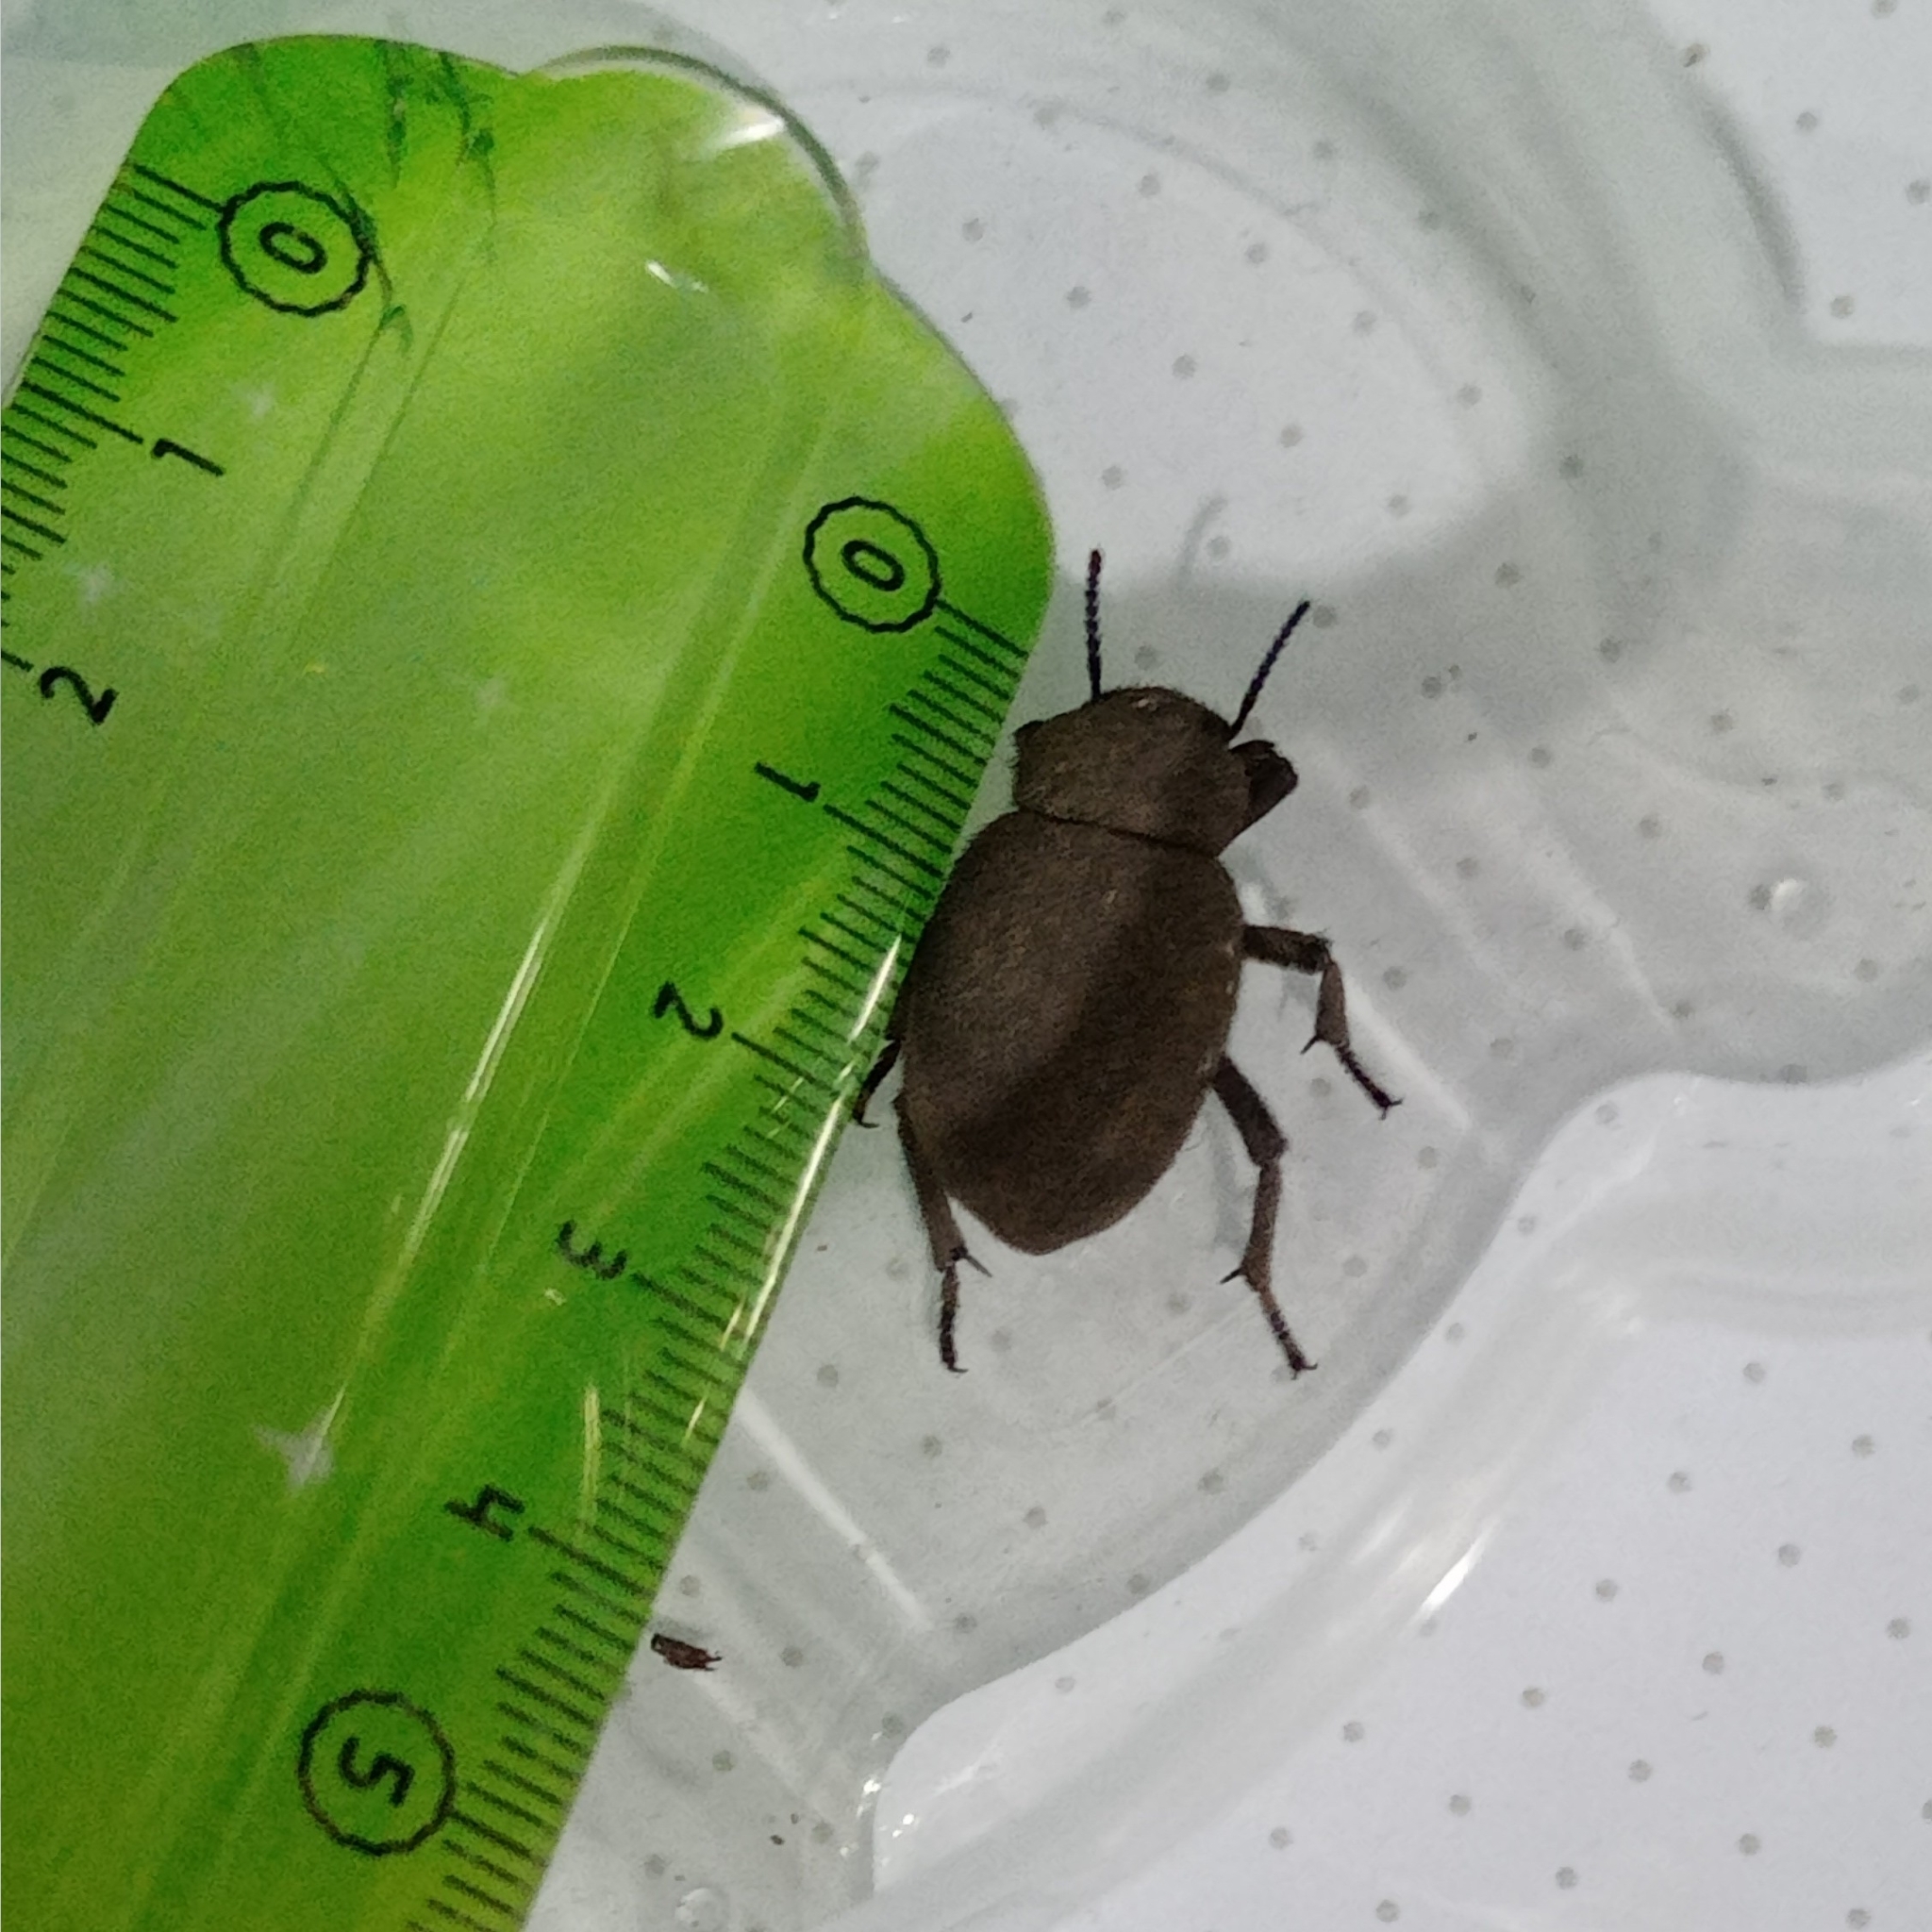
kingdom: Animalia
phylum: Arthropoda
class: Insecta
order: Coleoptera
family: Tenebrionidae
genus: Pachyscelis
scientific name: Pachyscelis villosa
